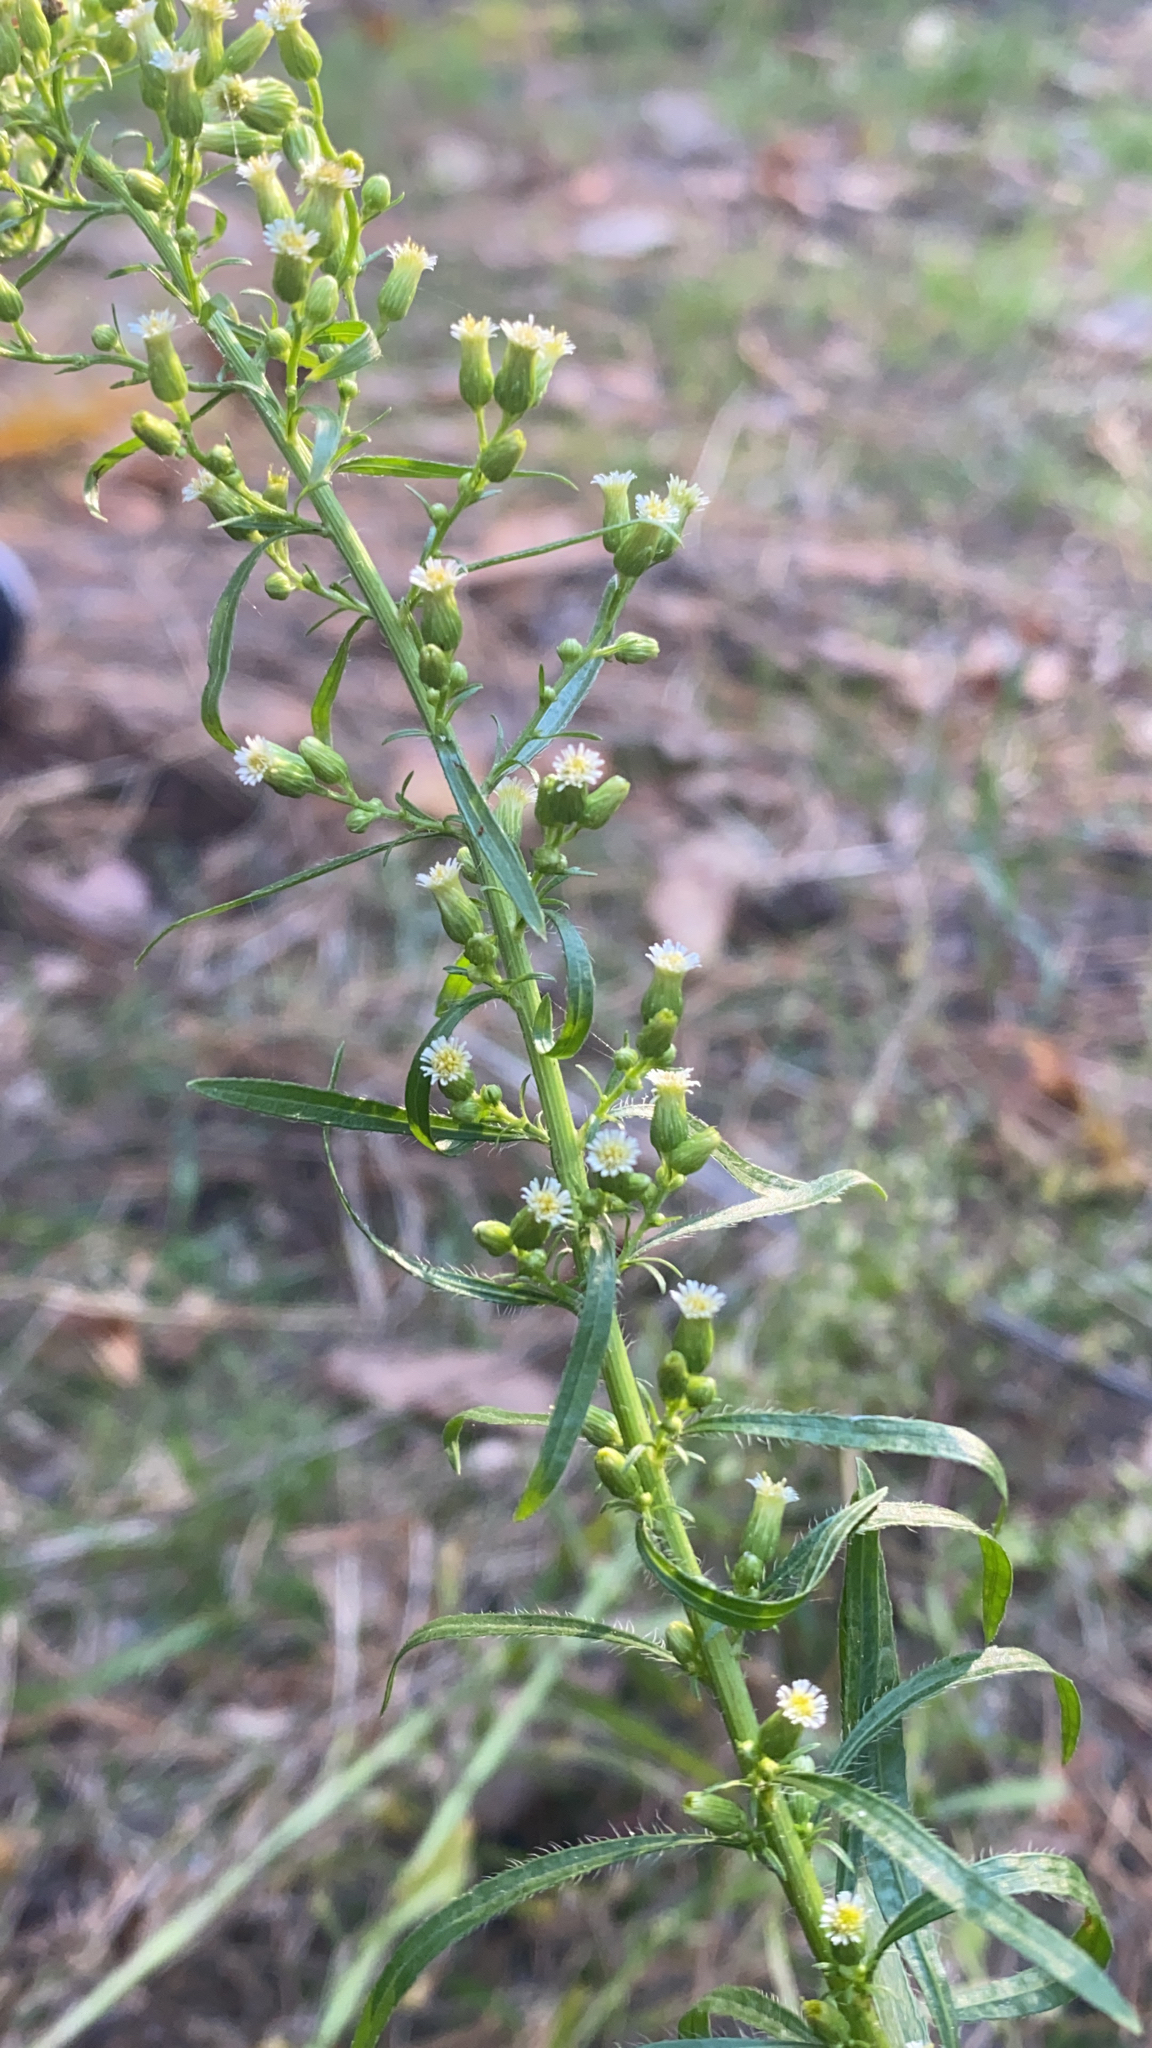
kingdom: Plantae
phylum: Tracheophyta
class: Magnoliopsida
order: Asterales
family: Asteraceae
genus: Erigeron
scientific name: Erigeron canadensis
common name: Canadian fleabane
